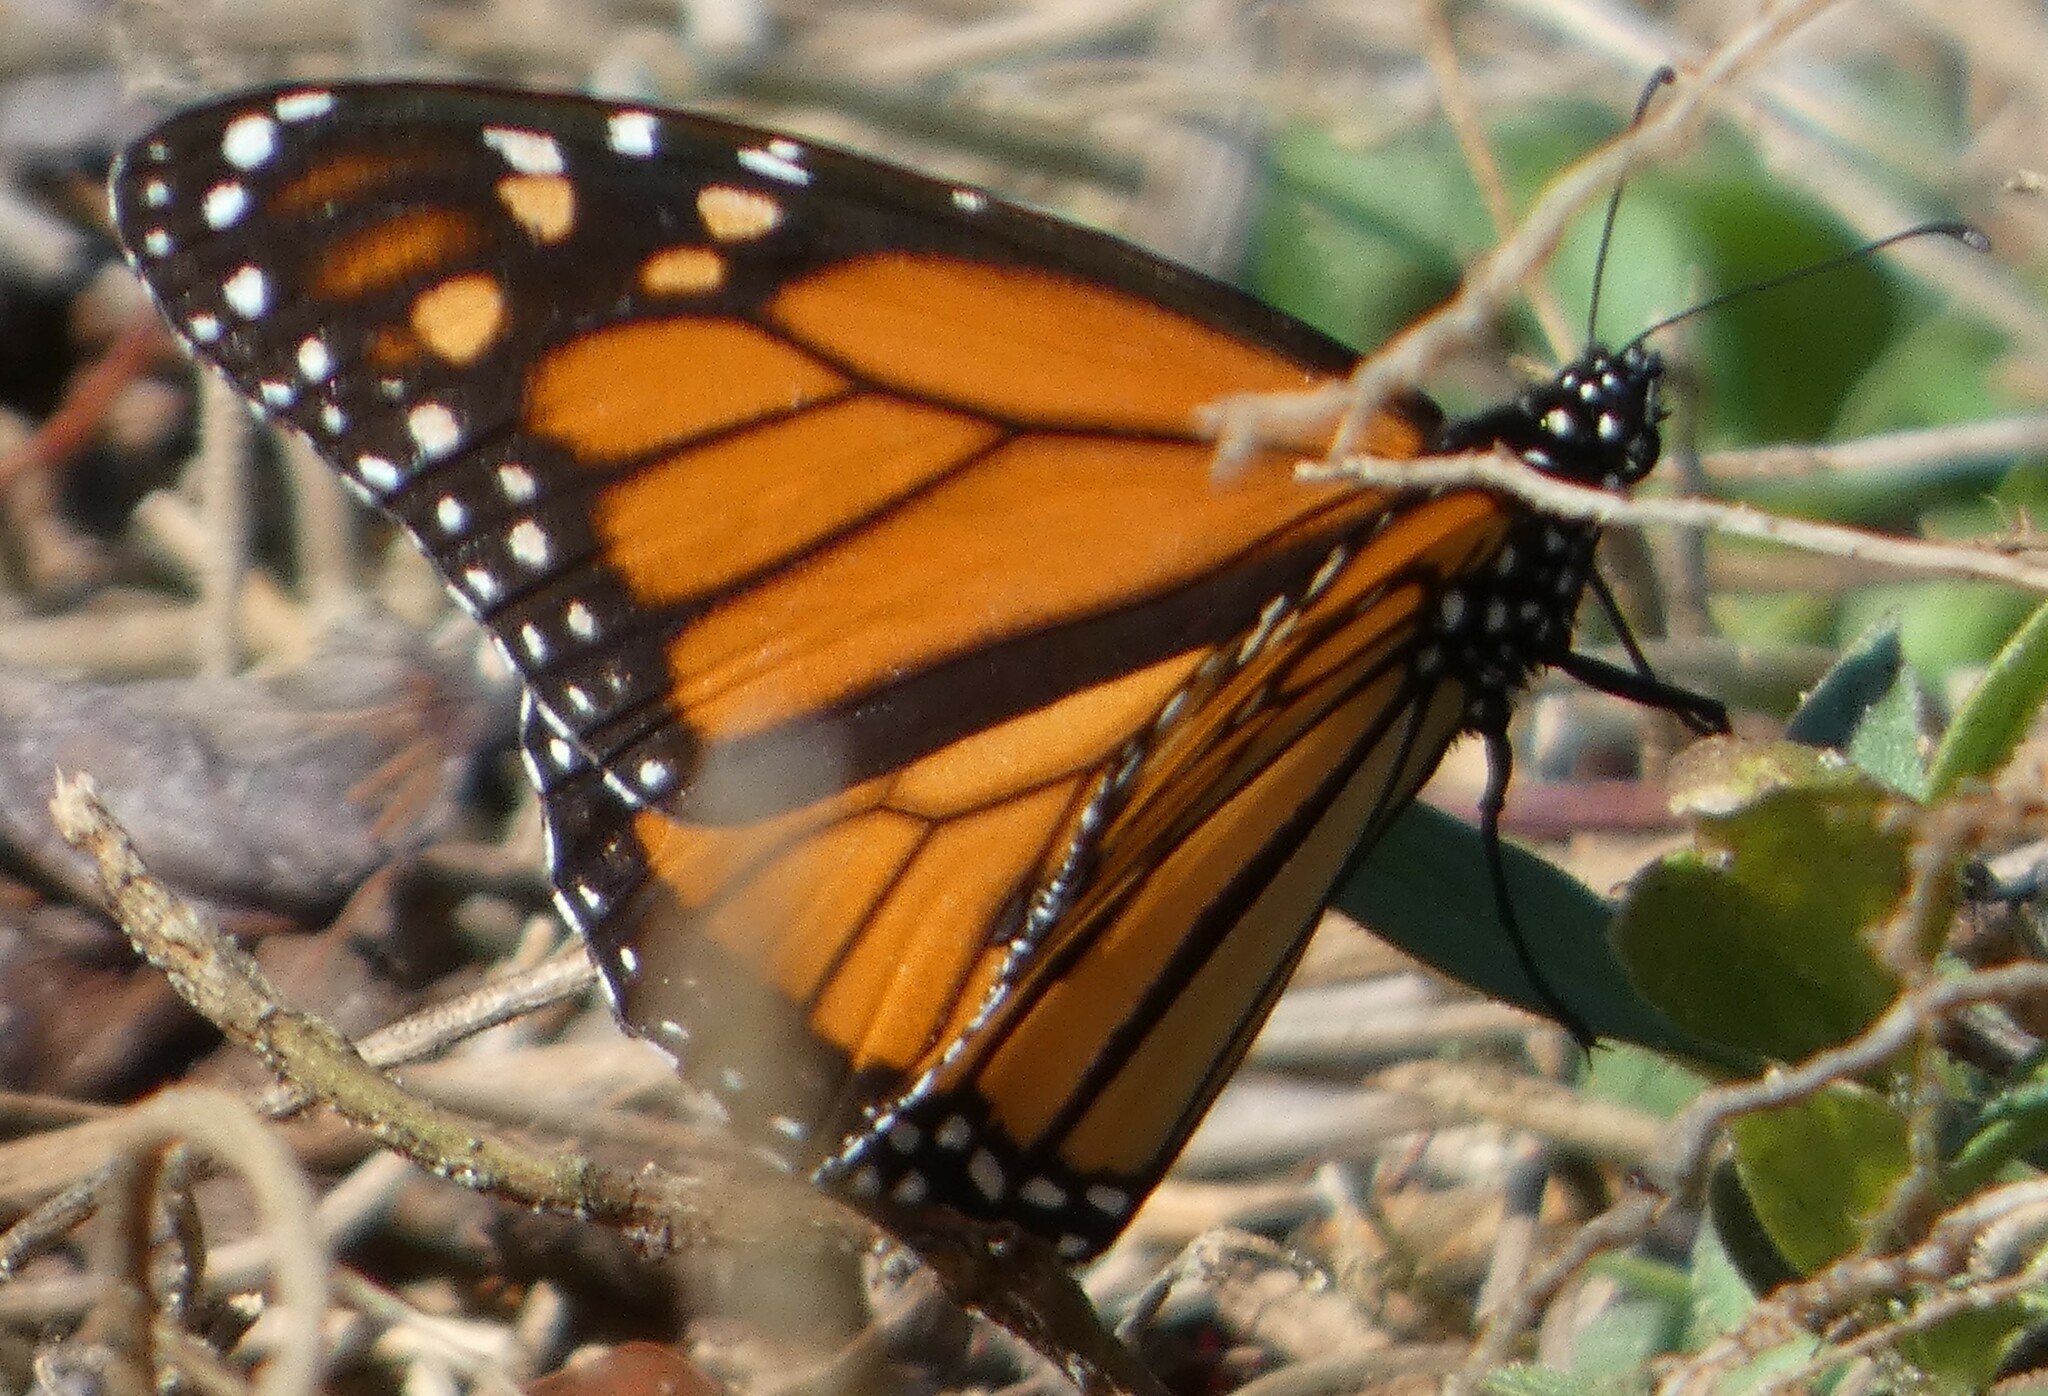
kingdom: Animalia
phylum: Arthropoda
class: Insecta
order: Lepidoptera
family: Nymphalidae
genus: Danaus
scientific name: Danaus plexippus
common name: Monarch
